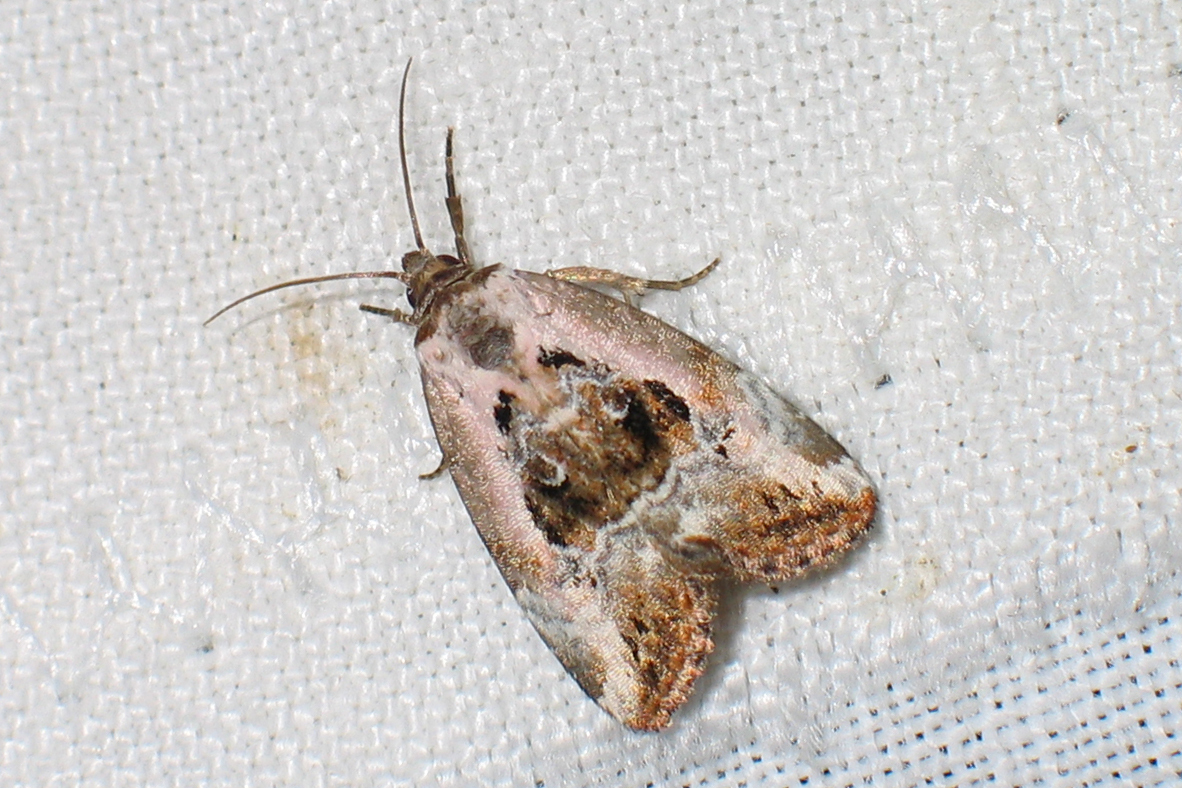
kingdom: Animalia
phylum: Arthropoda
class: Insecta
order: Lepidoptera
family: Noctuidae
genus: Elaphria
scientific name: Elaphria venustula
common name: Rosy marbled
